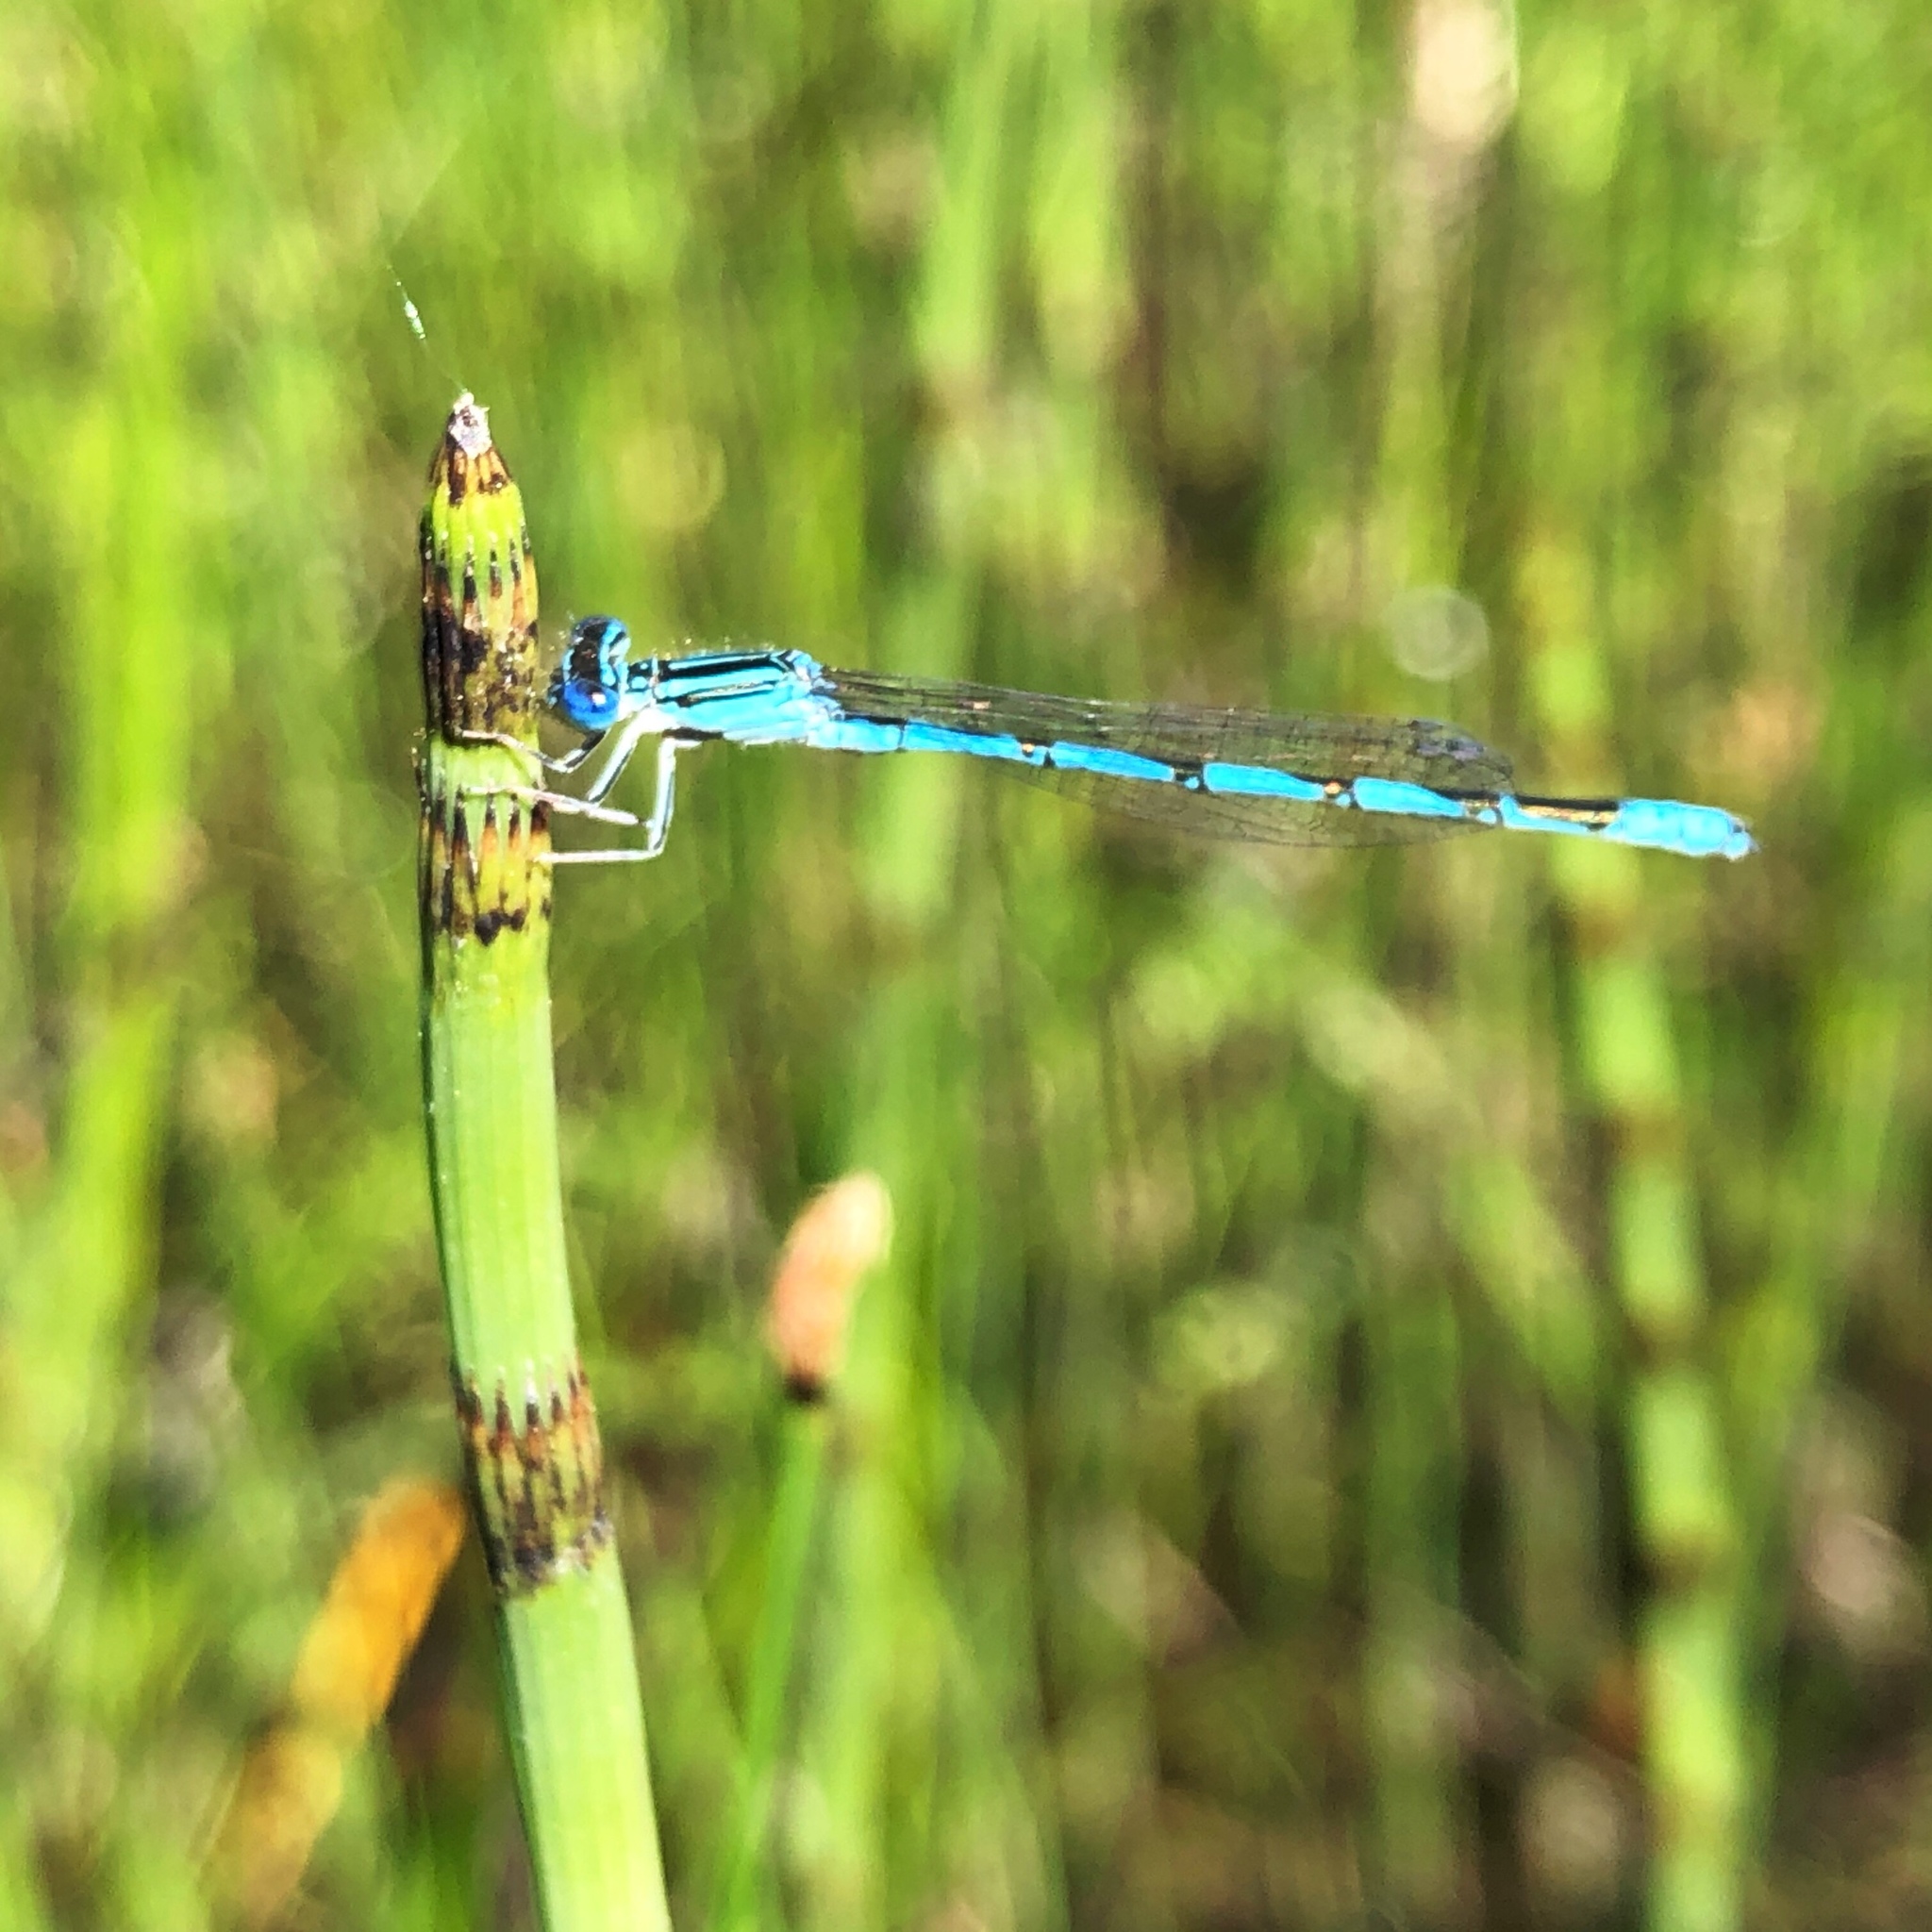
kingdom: Animalia
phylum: Arthropoda
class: Insecta
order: Odonata
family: Coenagrionidae
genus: Enallagma
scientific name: Enallagma basidens
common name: Double-striped bluet
